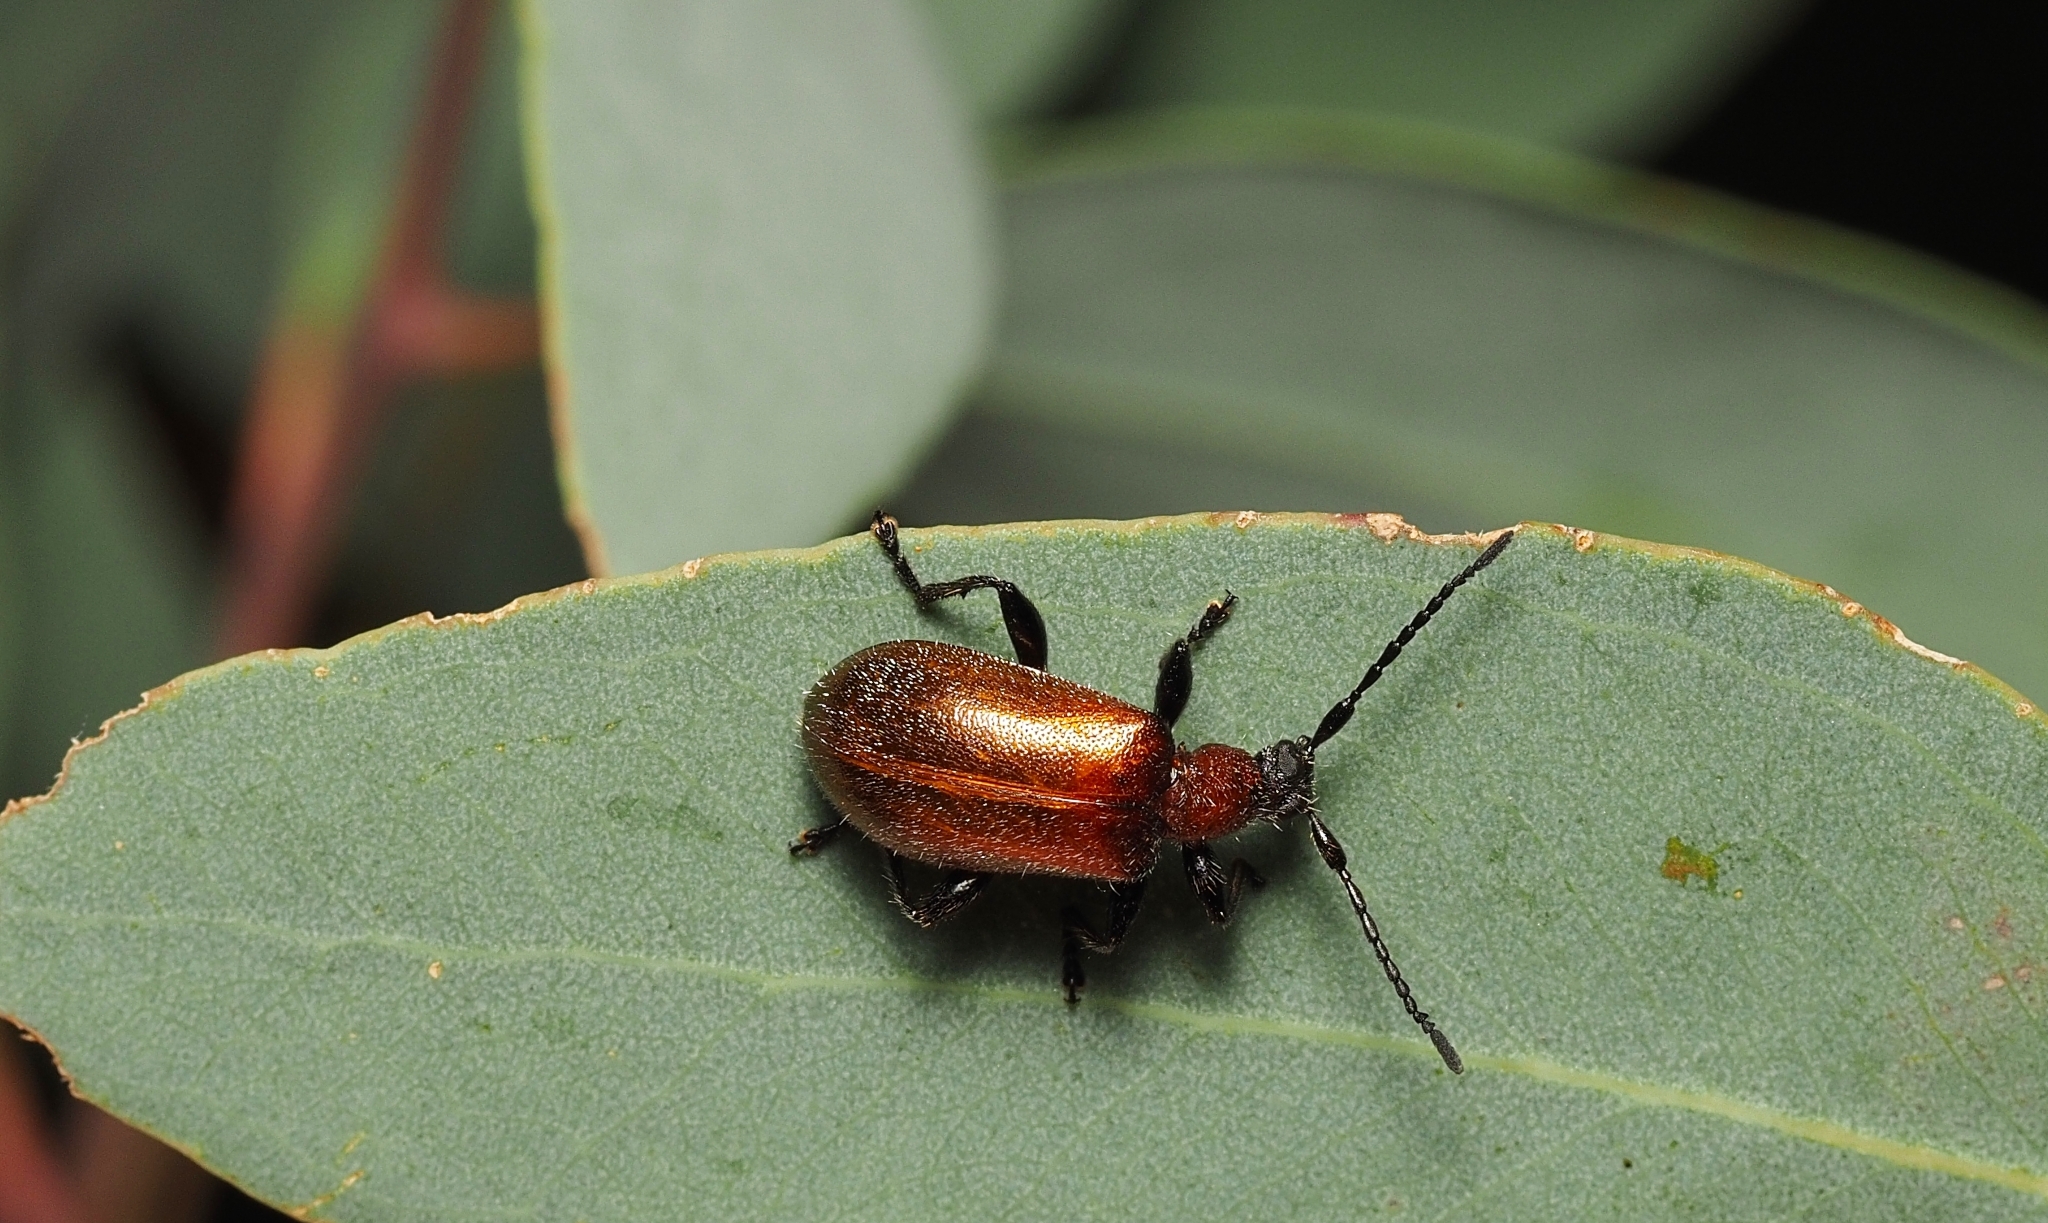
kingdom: Animalia
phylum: Arthropoda
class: Insecta
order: Coleoptera
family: Tenebrionidae
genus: Ecnolagria
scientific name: Ecnolagria
